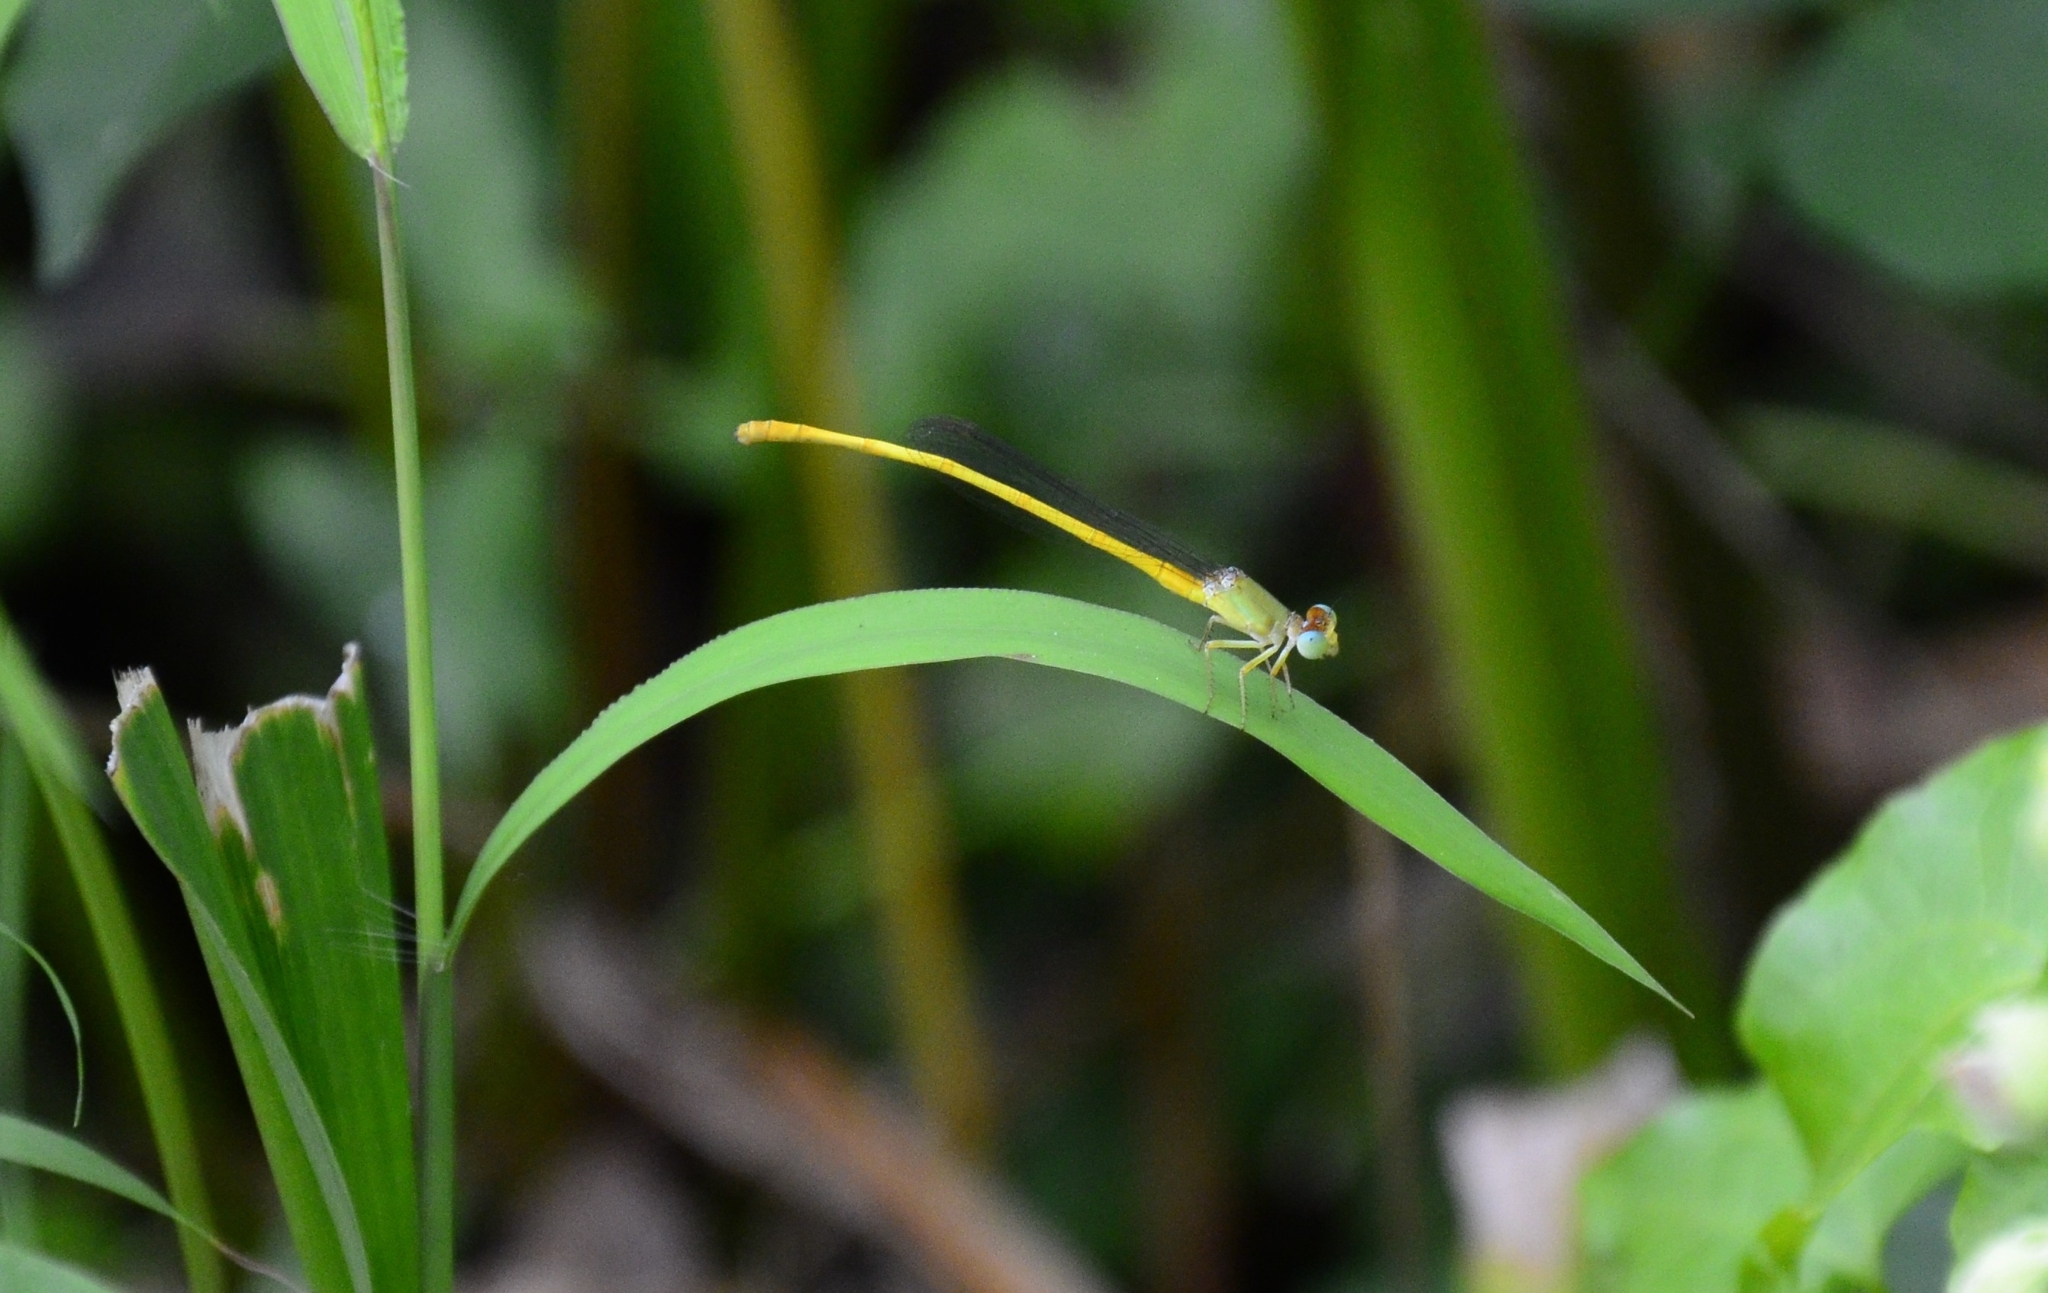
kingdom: Animalia
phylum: Arthropoda
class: Insecta
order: Odonata
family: Coenagrionidae
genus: Ceriagrion
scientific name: Ceriagrion coromandelianum
